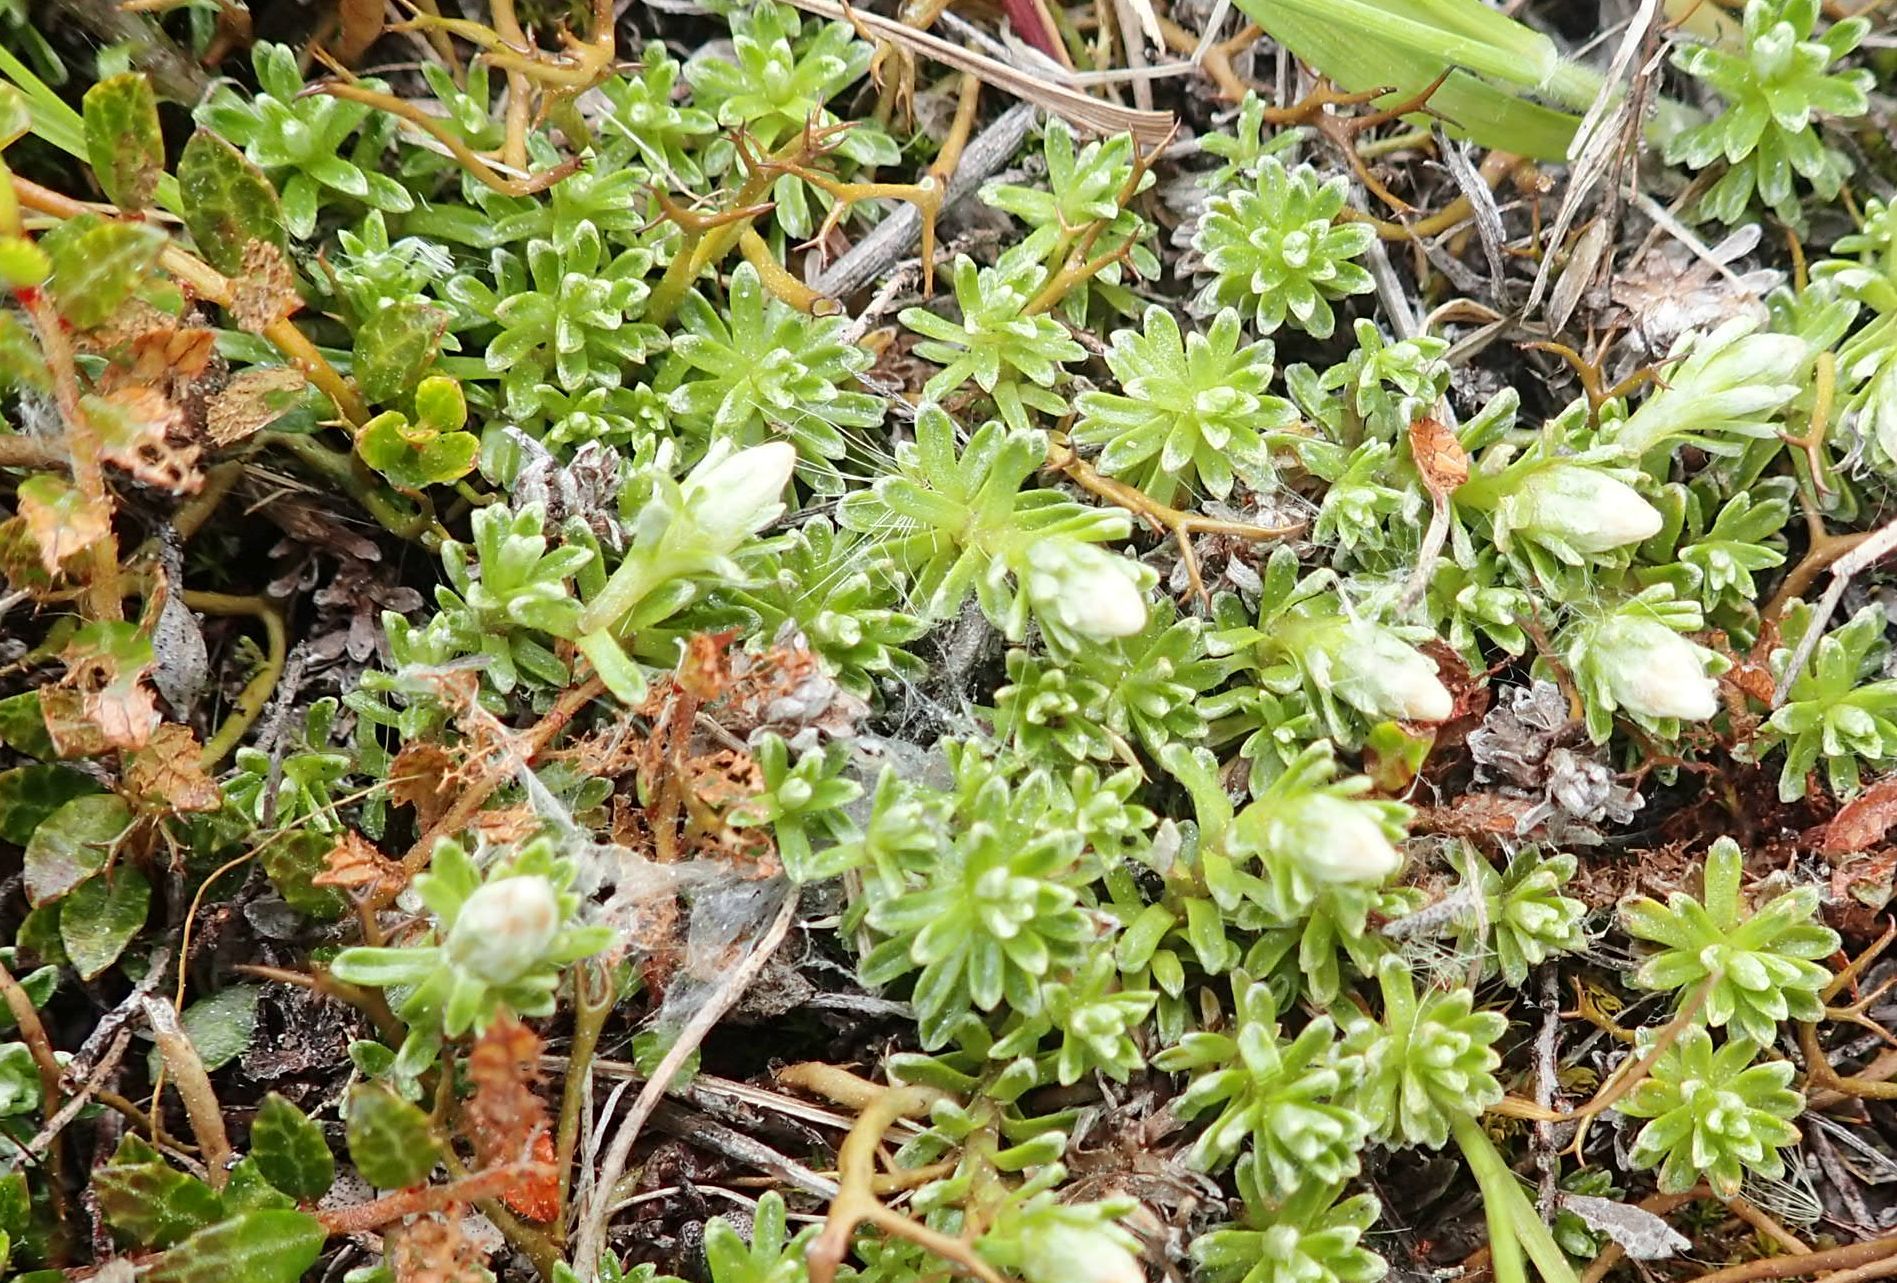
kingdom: Plantae
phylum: Tracheophyta
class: Magnoliopsida
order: Asterales
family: Asteraceae
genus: Raoulia
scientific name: Raoulia glabra
